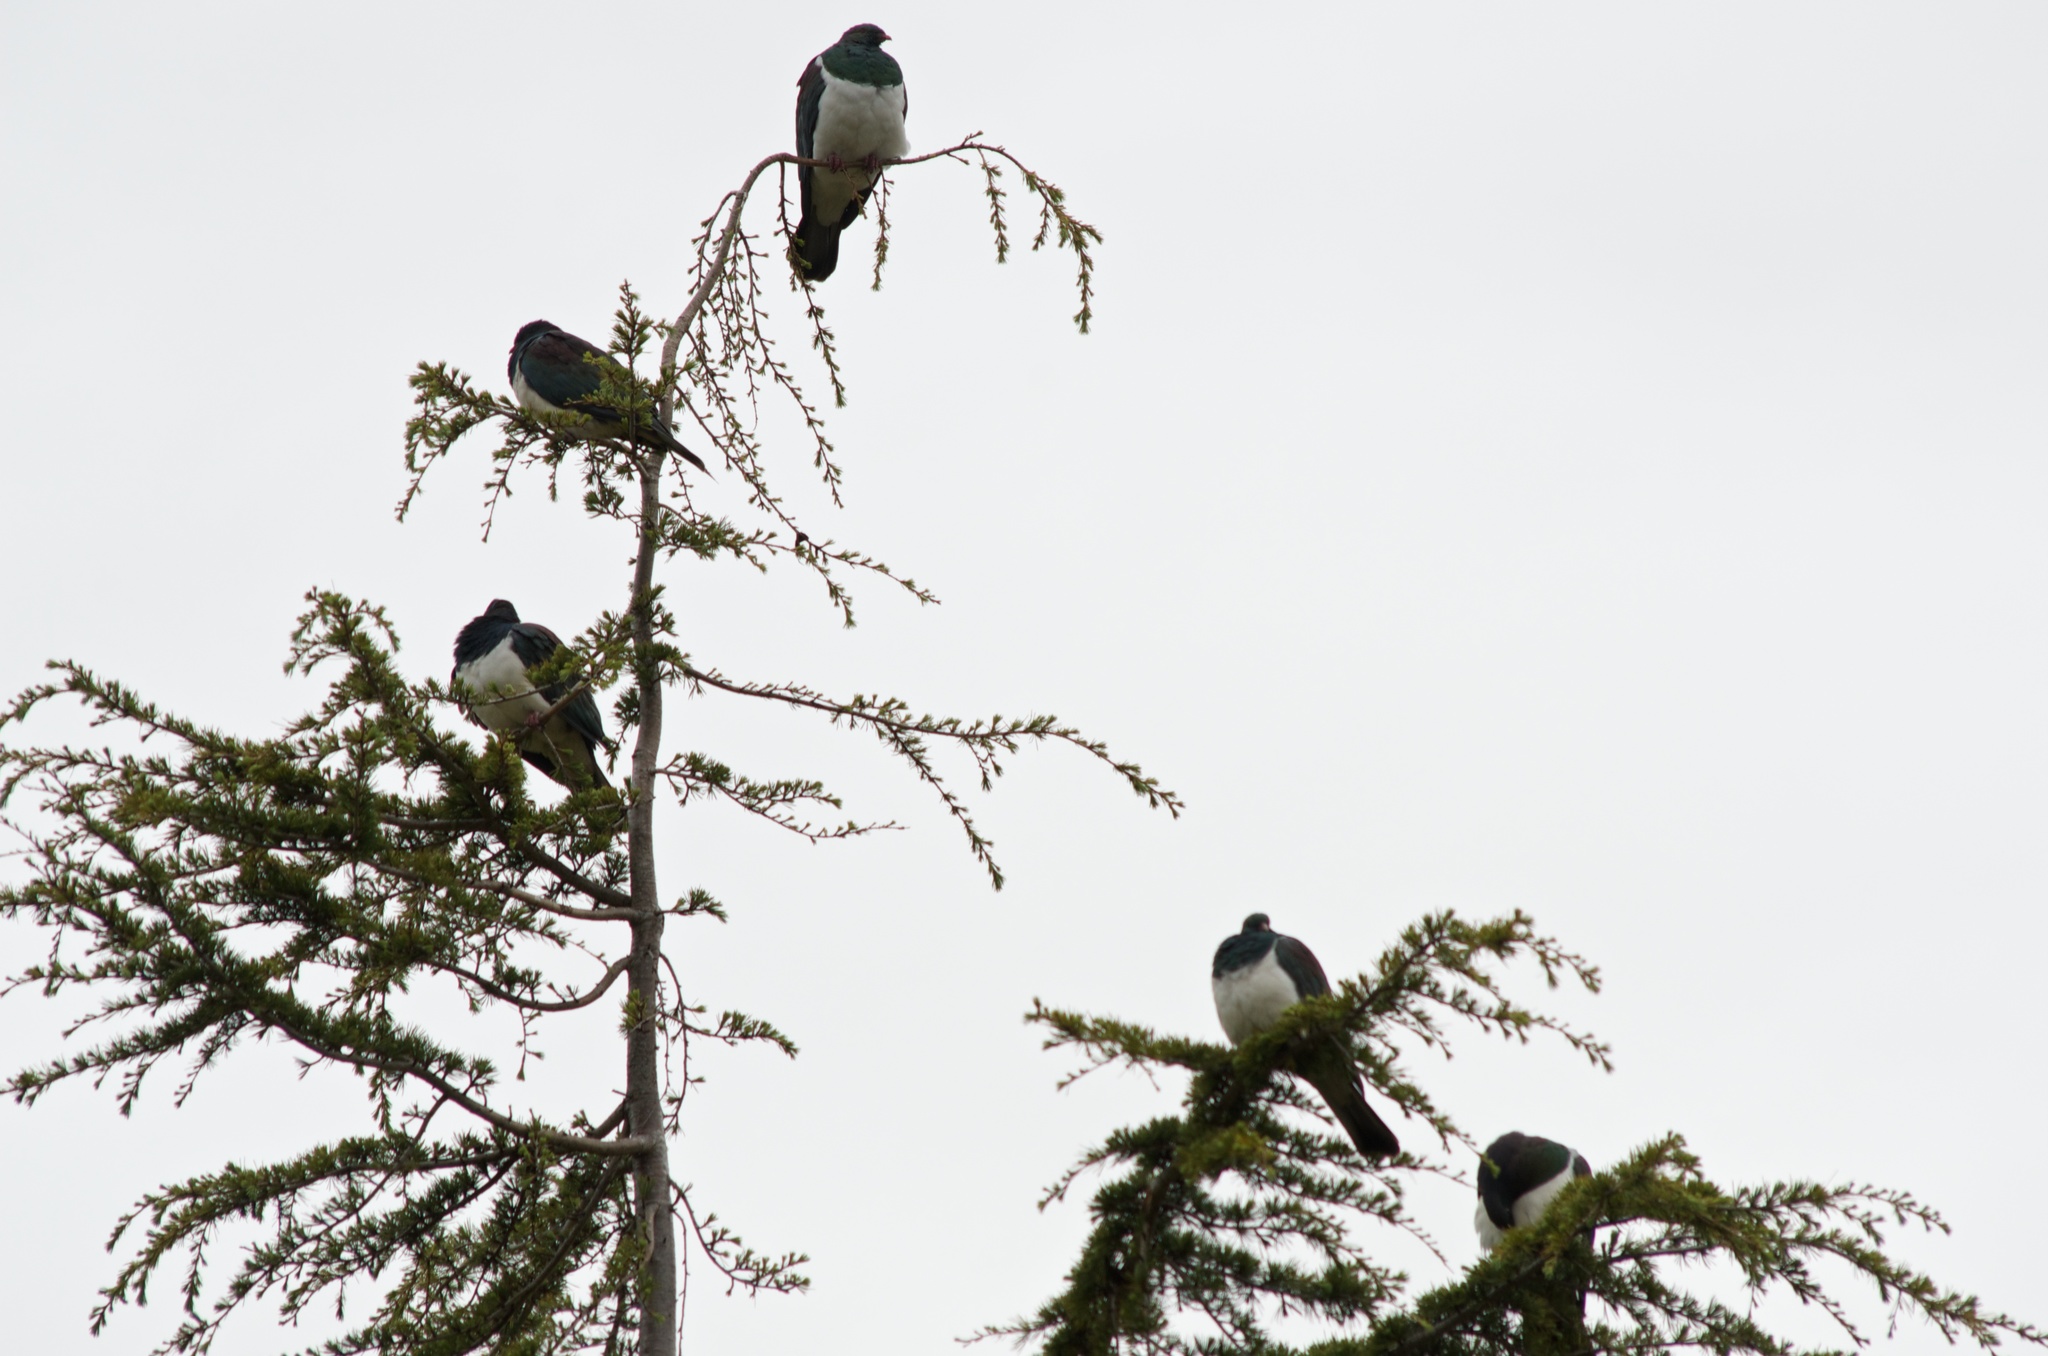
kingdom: Animalia
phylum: Chordata
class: Aves
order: Columbiformes
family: Columbidae
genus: Hemiphaga
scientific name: Hemiphaga novaeseelandiae
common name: New zealand pigeon
